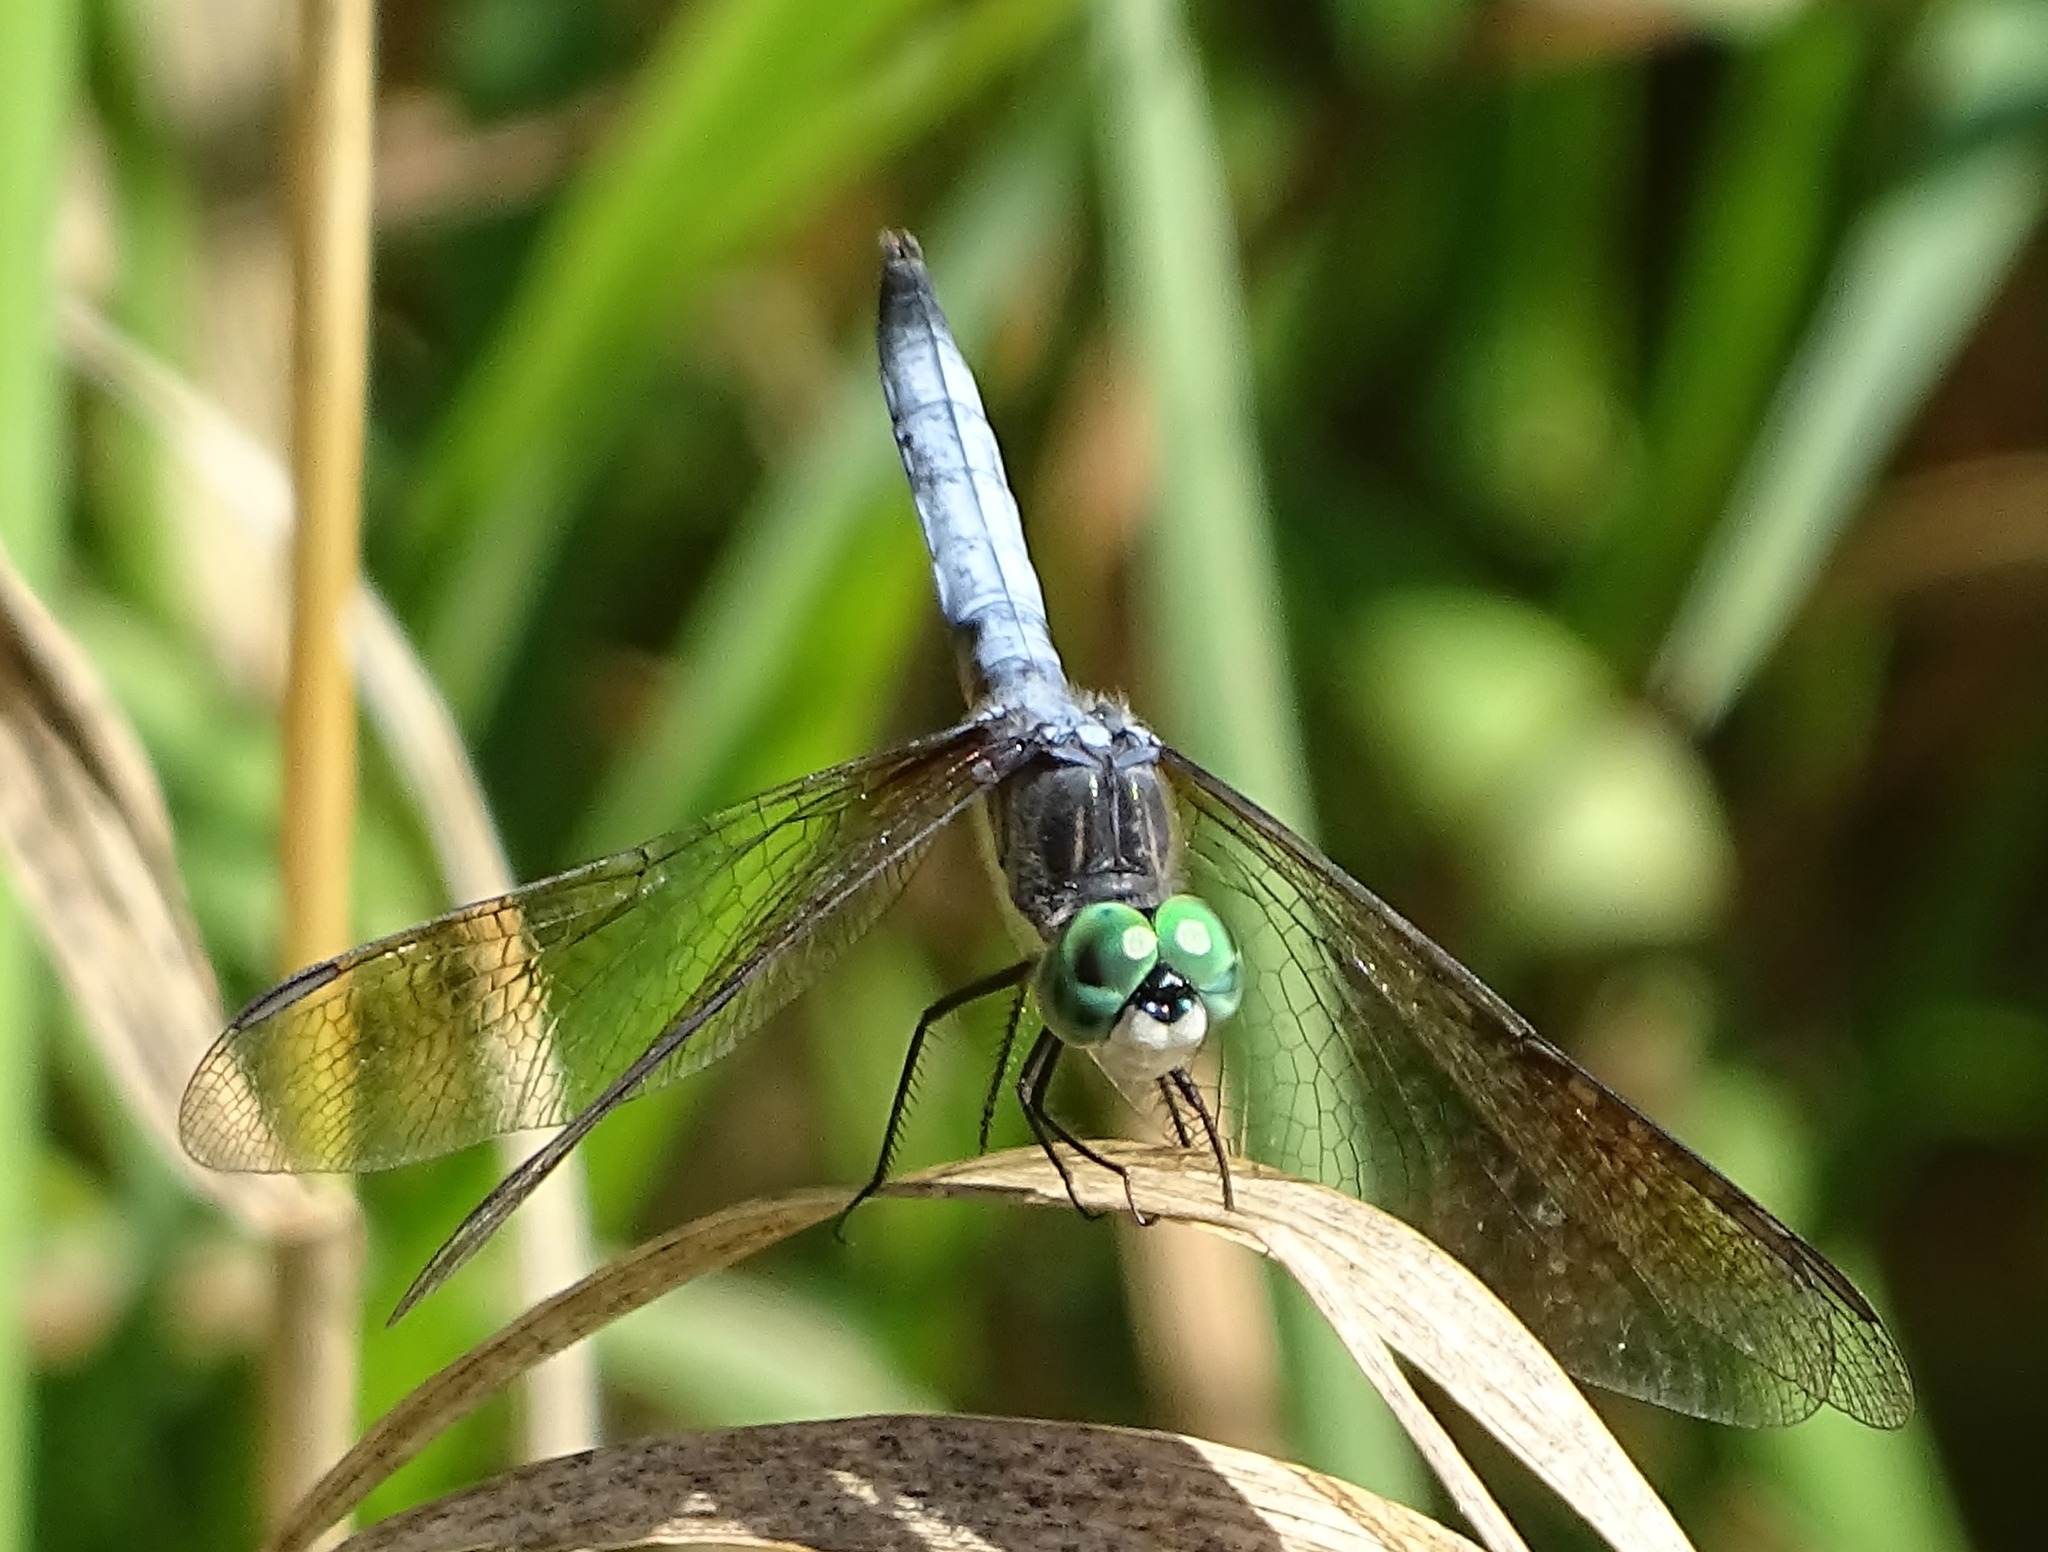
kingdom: Animalia
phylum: Arthropoda
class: Insecta
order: Odonata
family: Libellulidae
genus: Pachydiplax
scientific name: Pachydiplax longipennis
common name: Blue dasher
